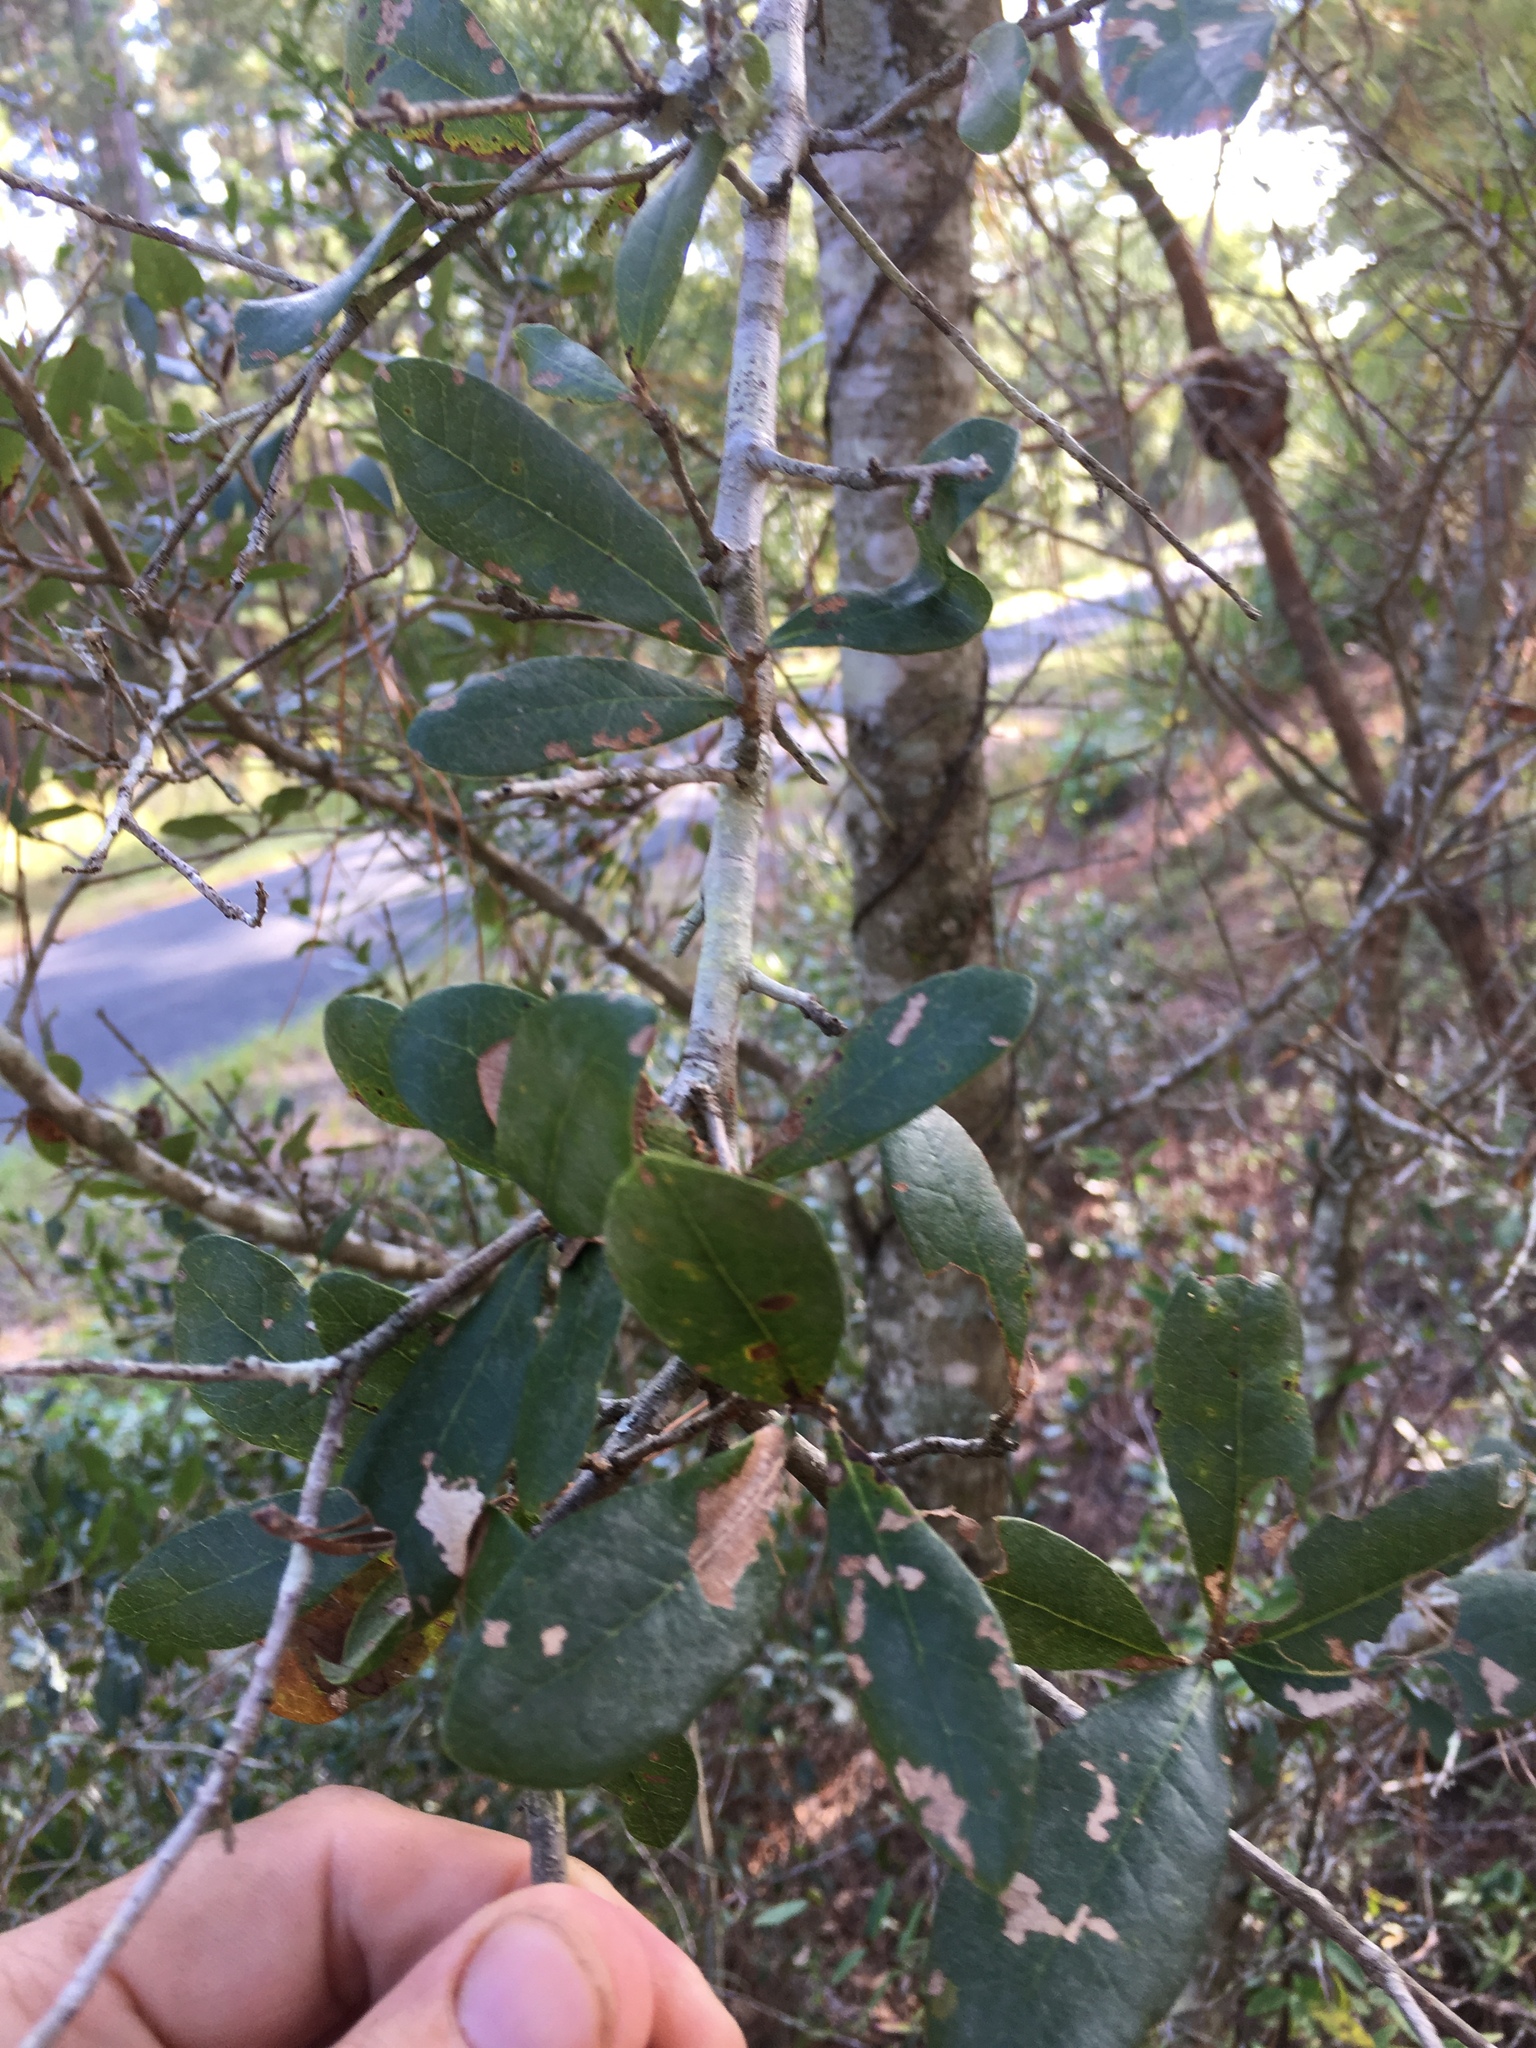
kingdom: Plantae
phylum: Tracheophyta
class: Magnoliopsida
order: Fagales
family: Fagaceae
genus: Quercus
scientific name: Quercus virginiana
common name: Southern live oak
